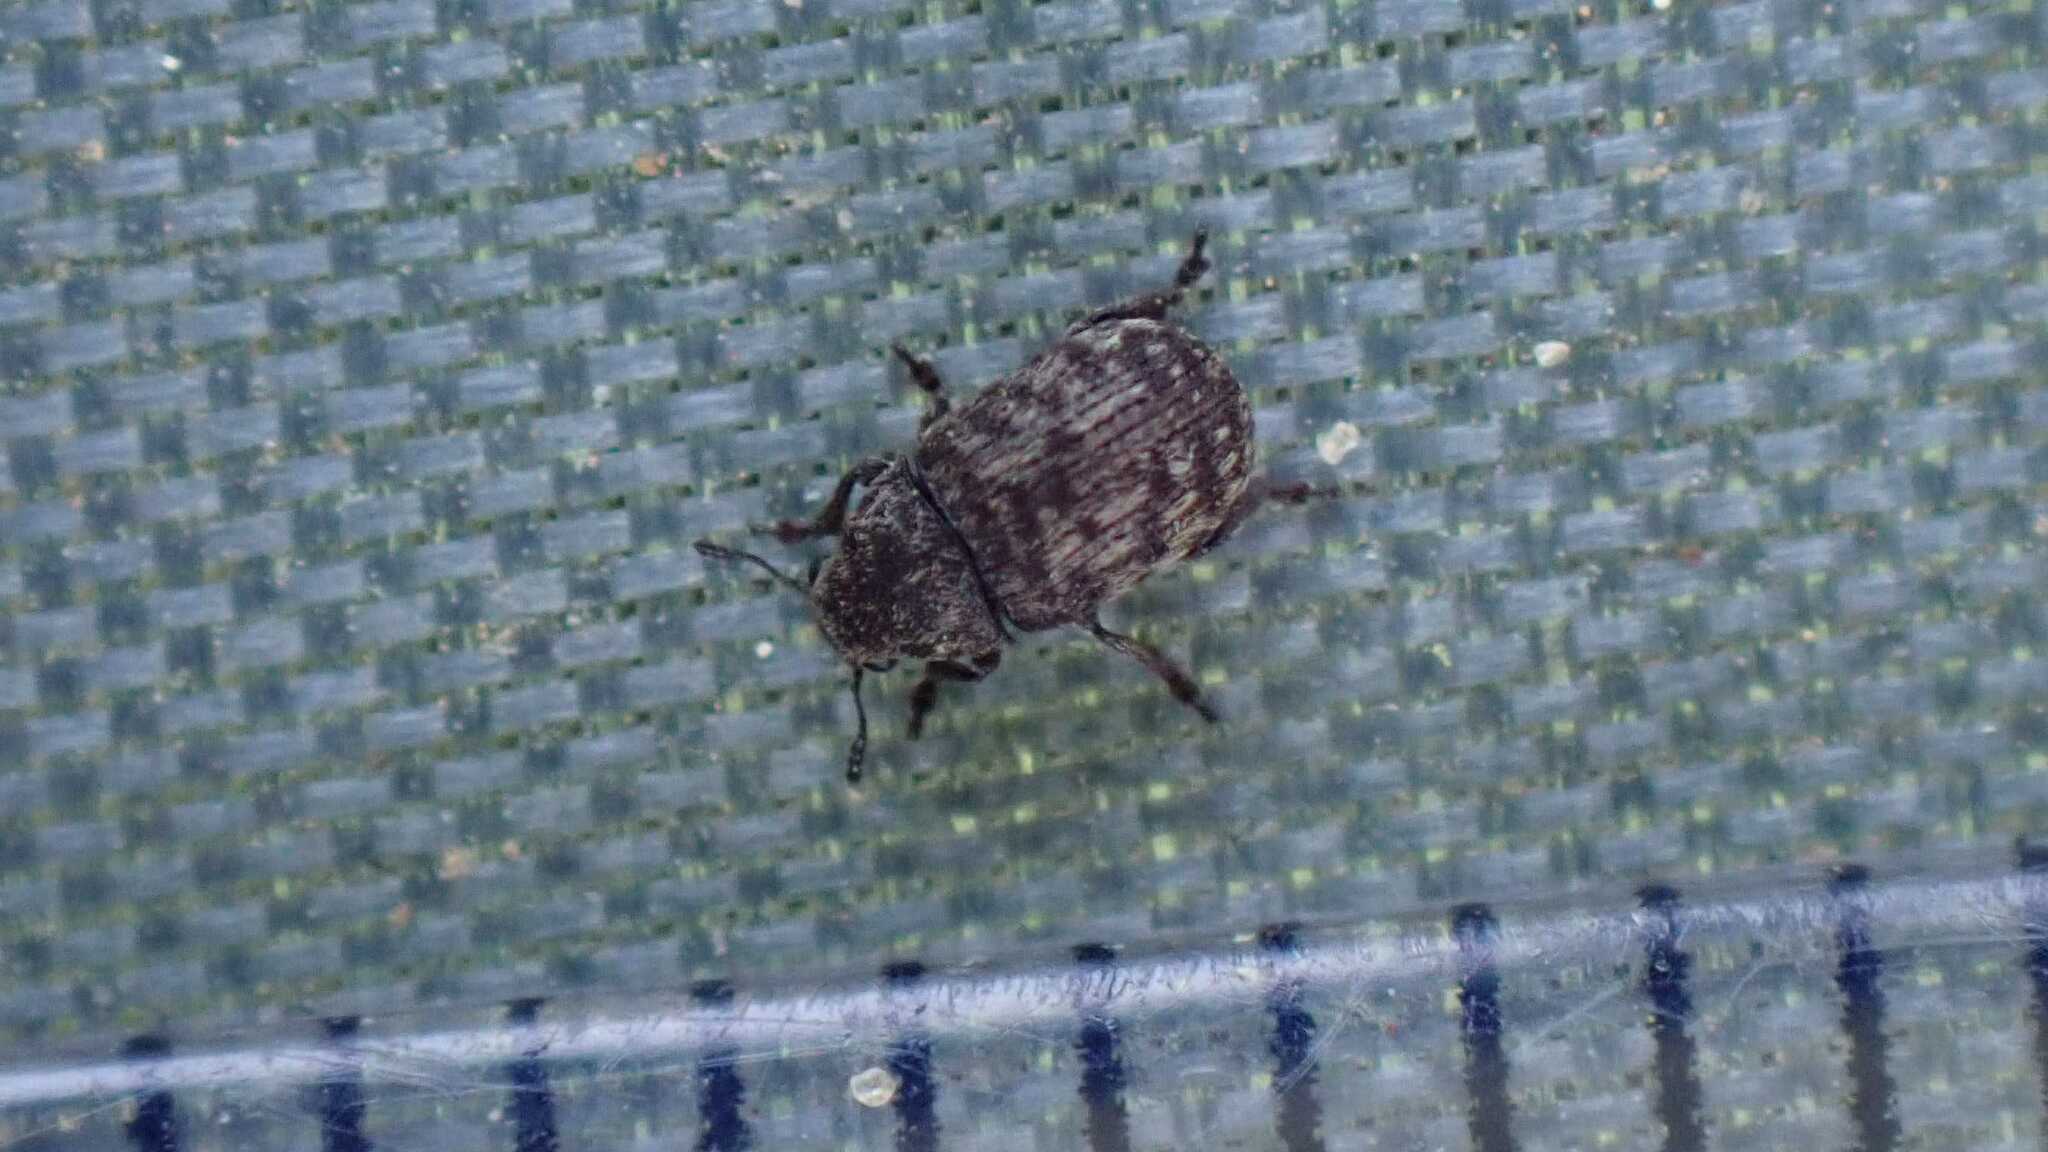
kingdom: Animalia
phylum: Arthropoda
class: Insecta
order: Coleoptera
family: Anthribidae
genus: Anthribus
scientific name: Anthribus nebulosus
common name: Fungus weevil
